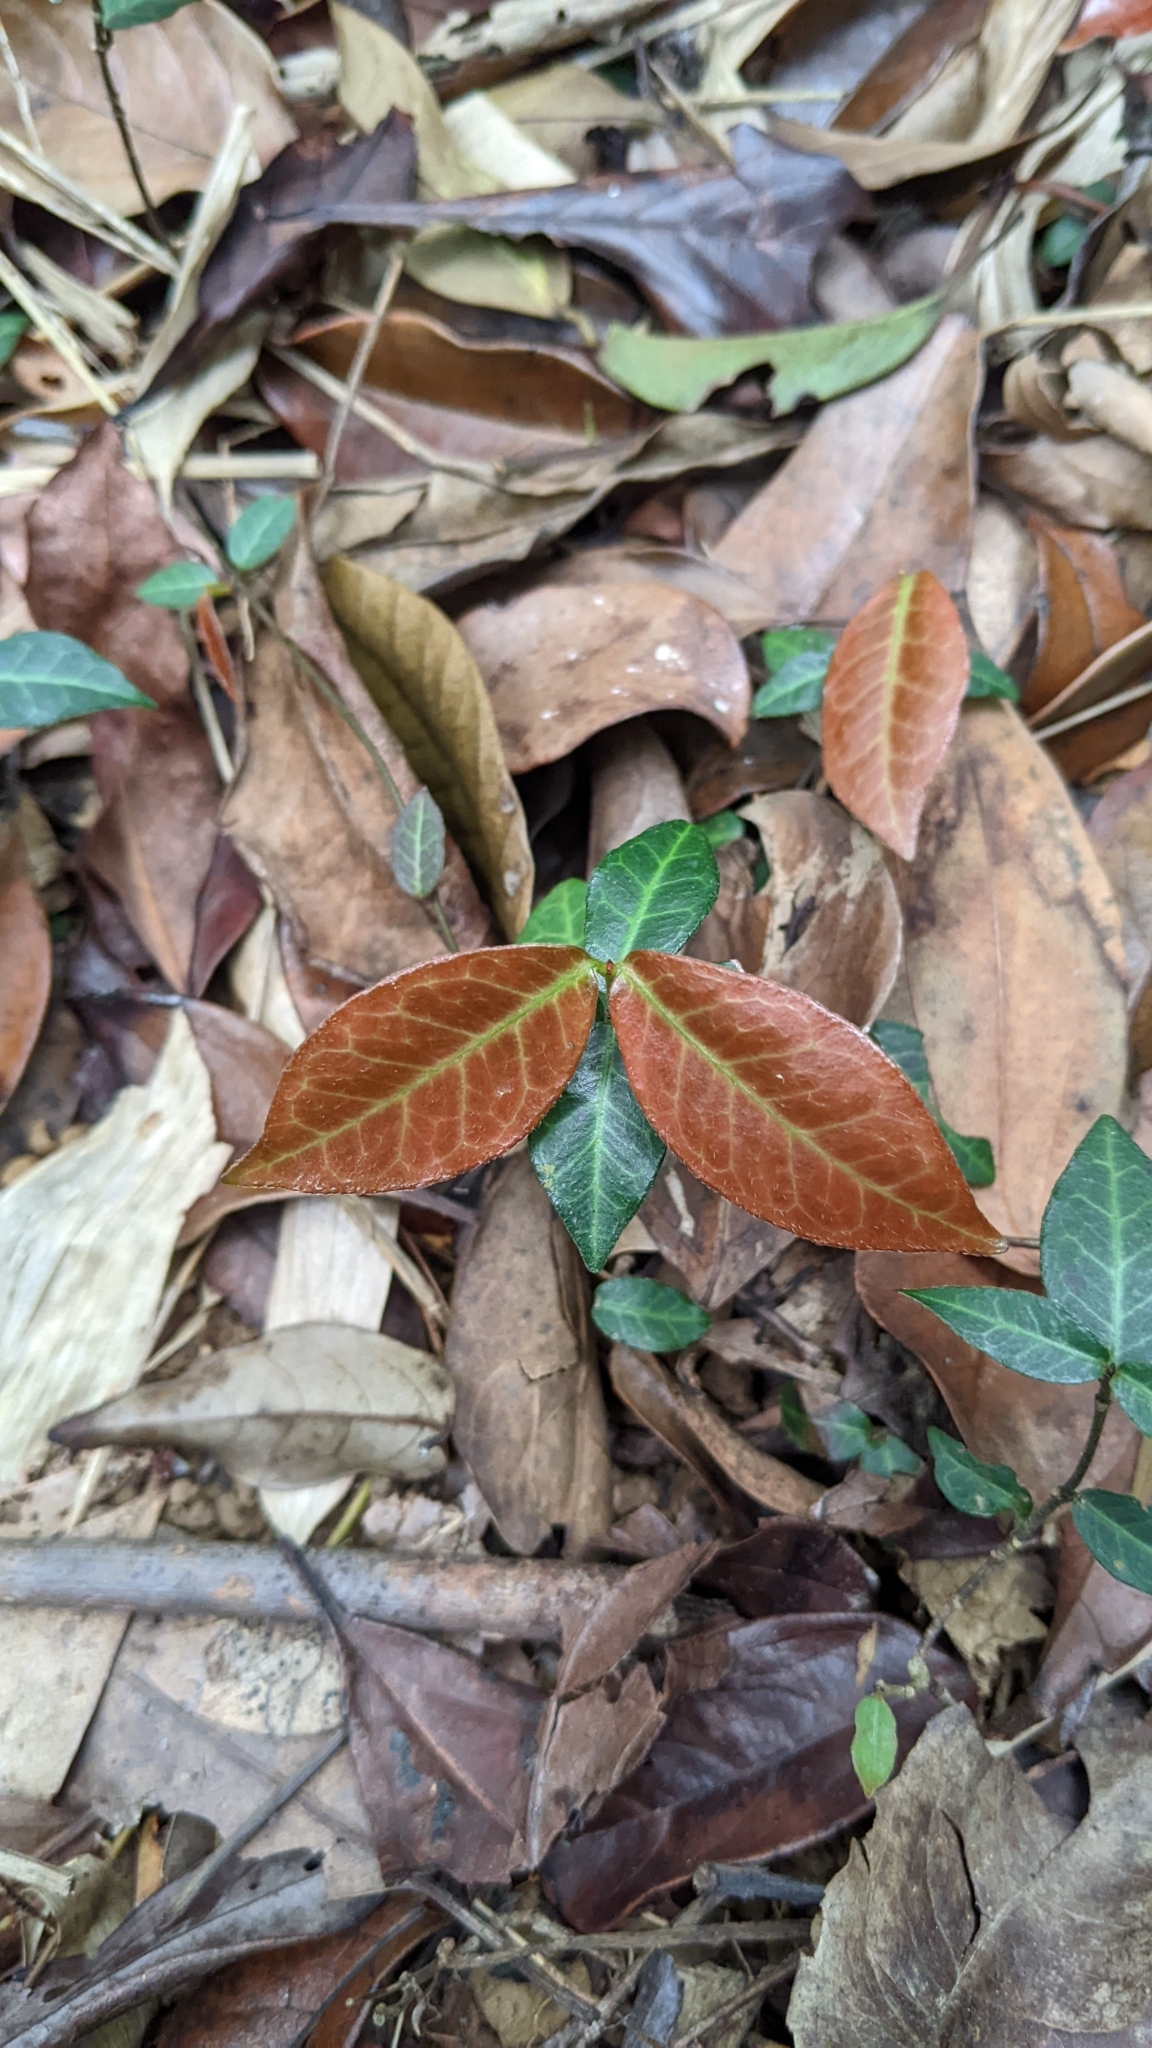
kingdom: Plantae
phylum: Tracheophyta
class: Magnoliopsida
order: Gentianales
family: Apocynaceae
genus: Trachelospermum
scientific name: Trachelospermum jasminoides
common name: Confederate jasmine
